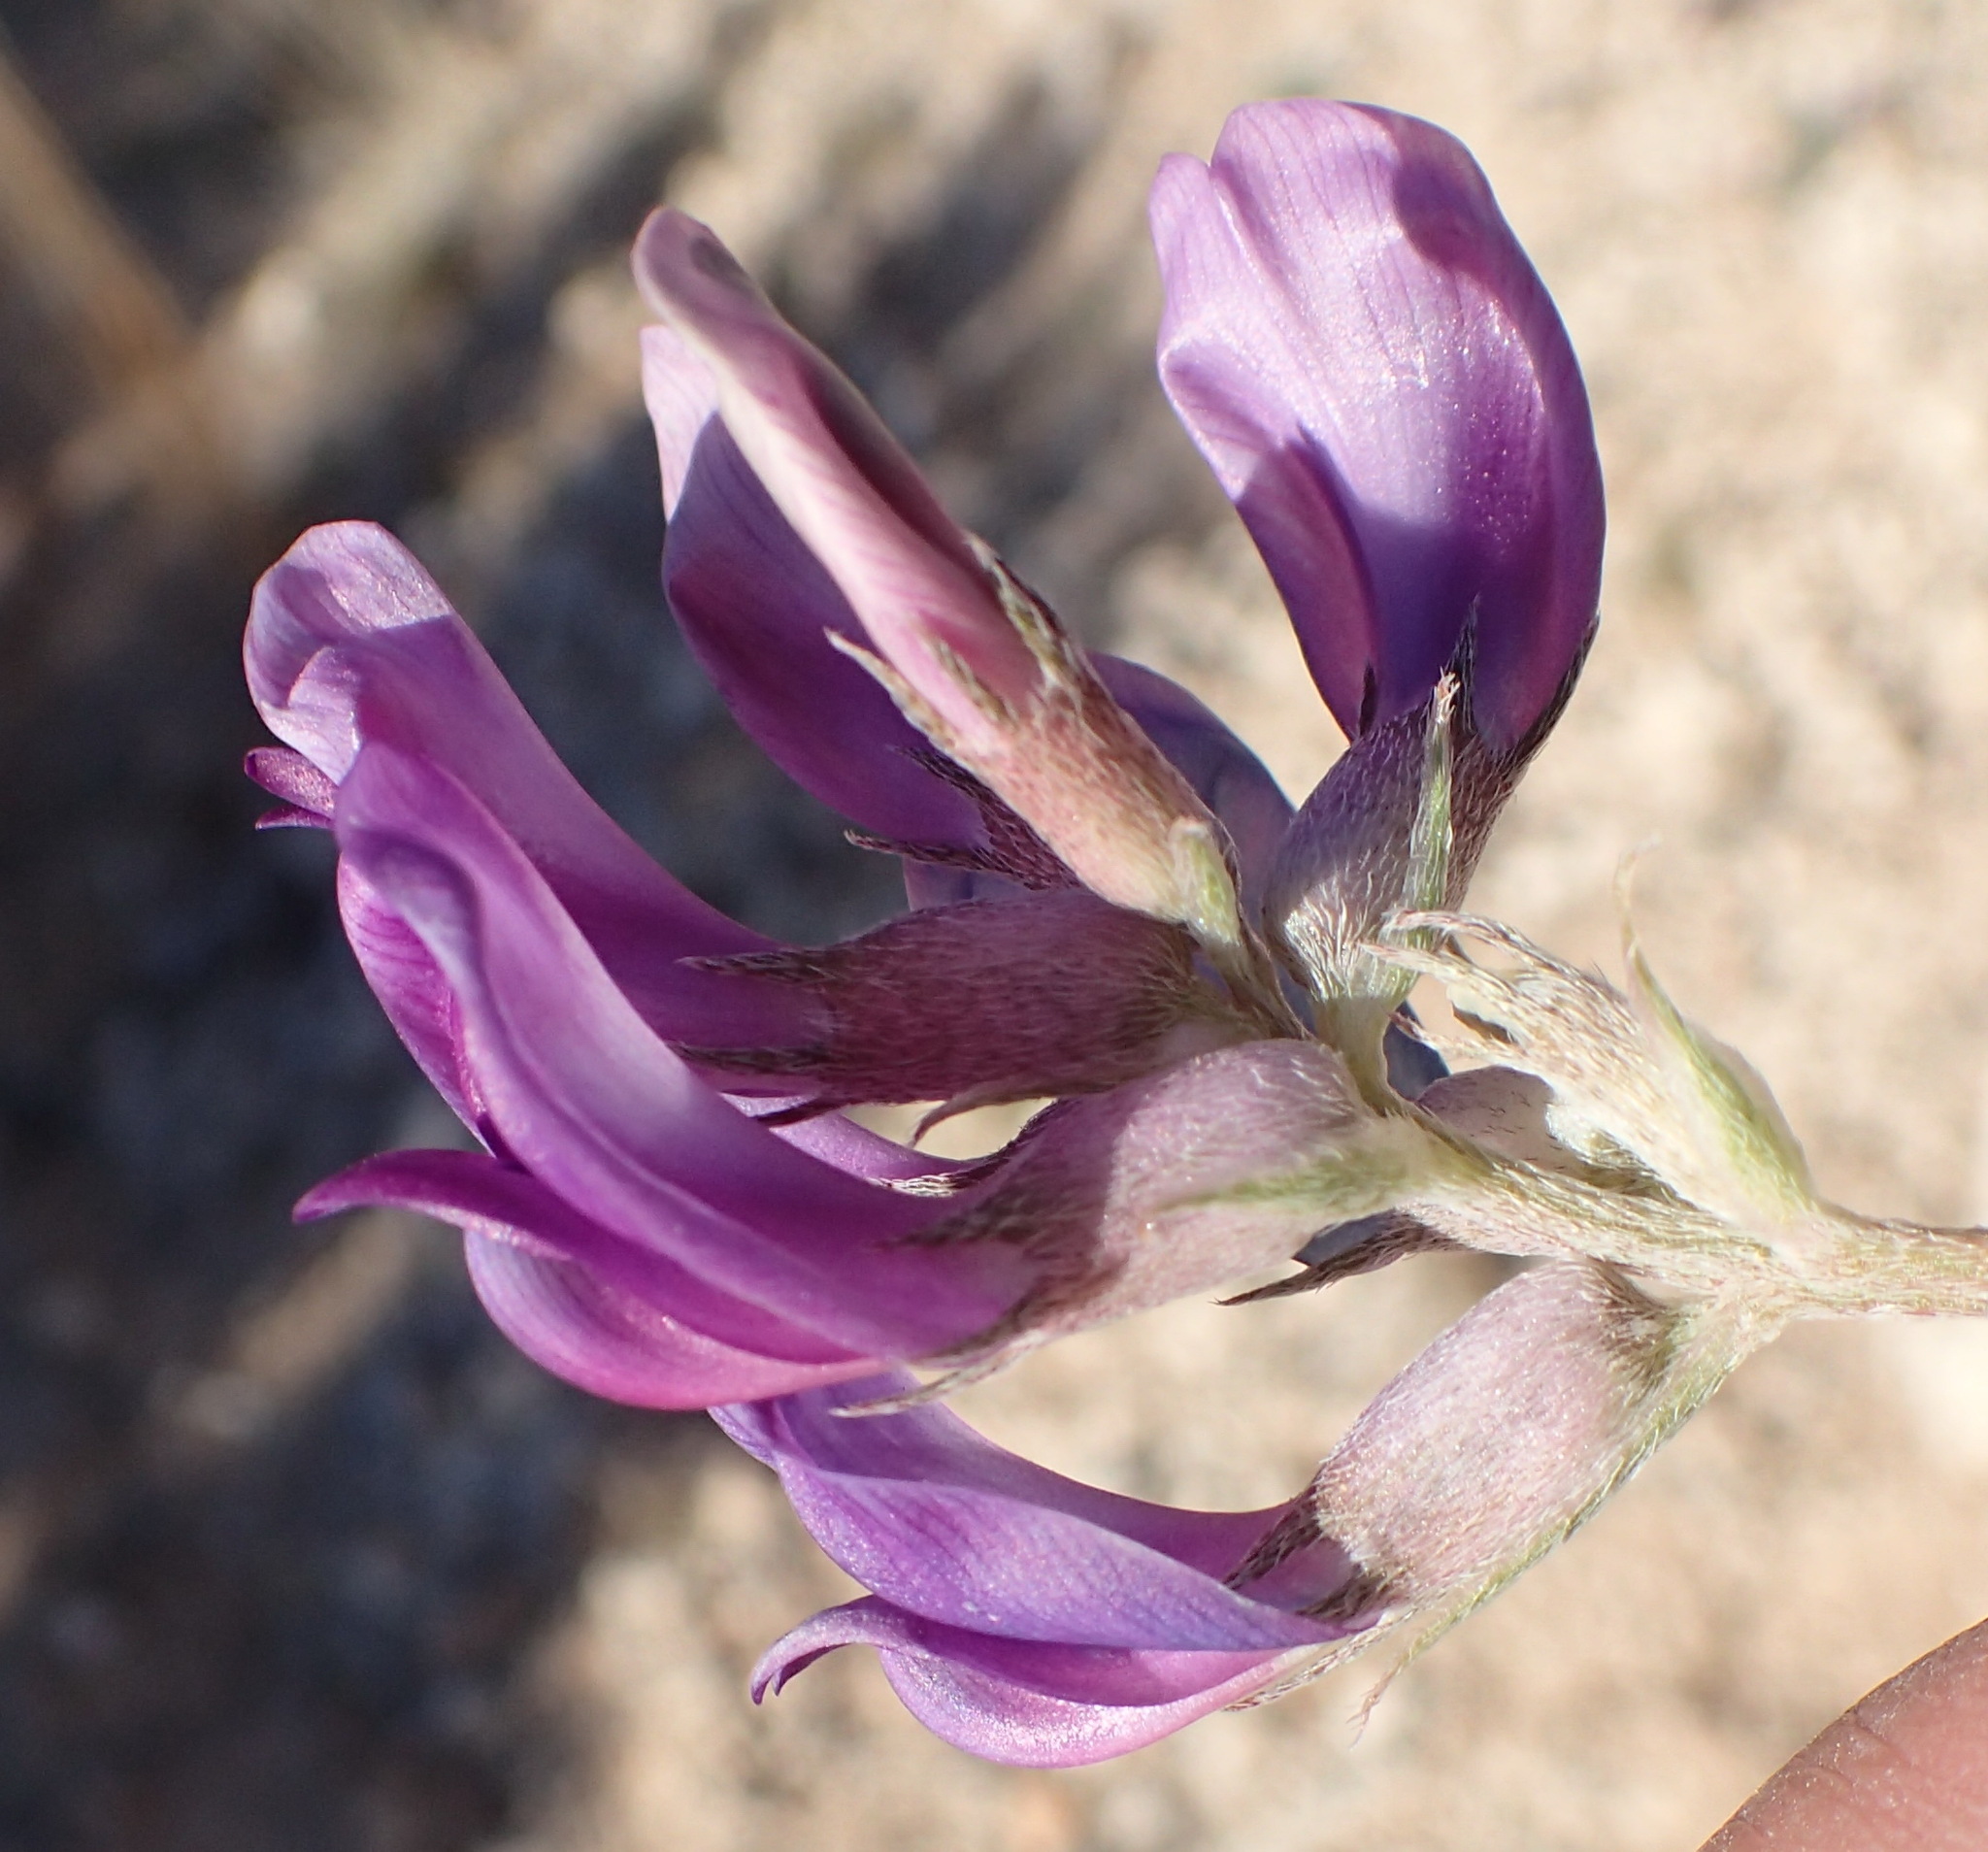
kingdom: Plantae
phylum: Tracheophyta
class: Magnoliopsida
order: Fabales
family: Fabaceae
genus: Astragalus
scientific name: Astragalus missouriensis
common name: Missouri milk-vetch
